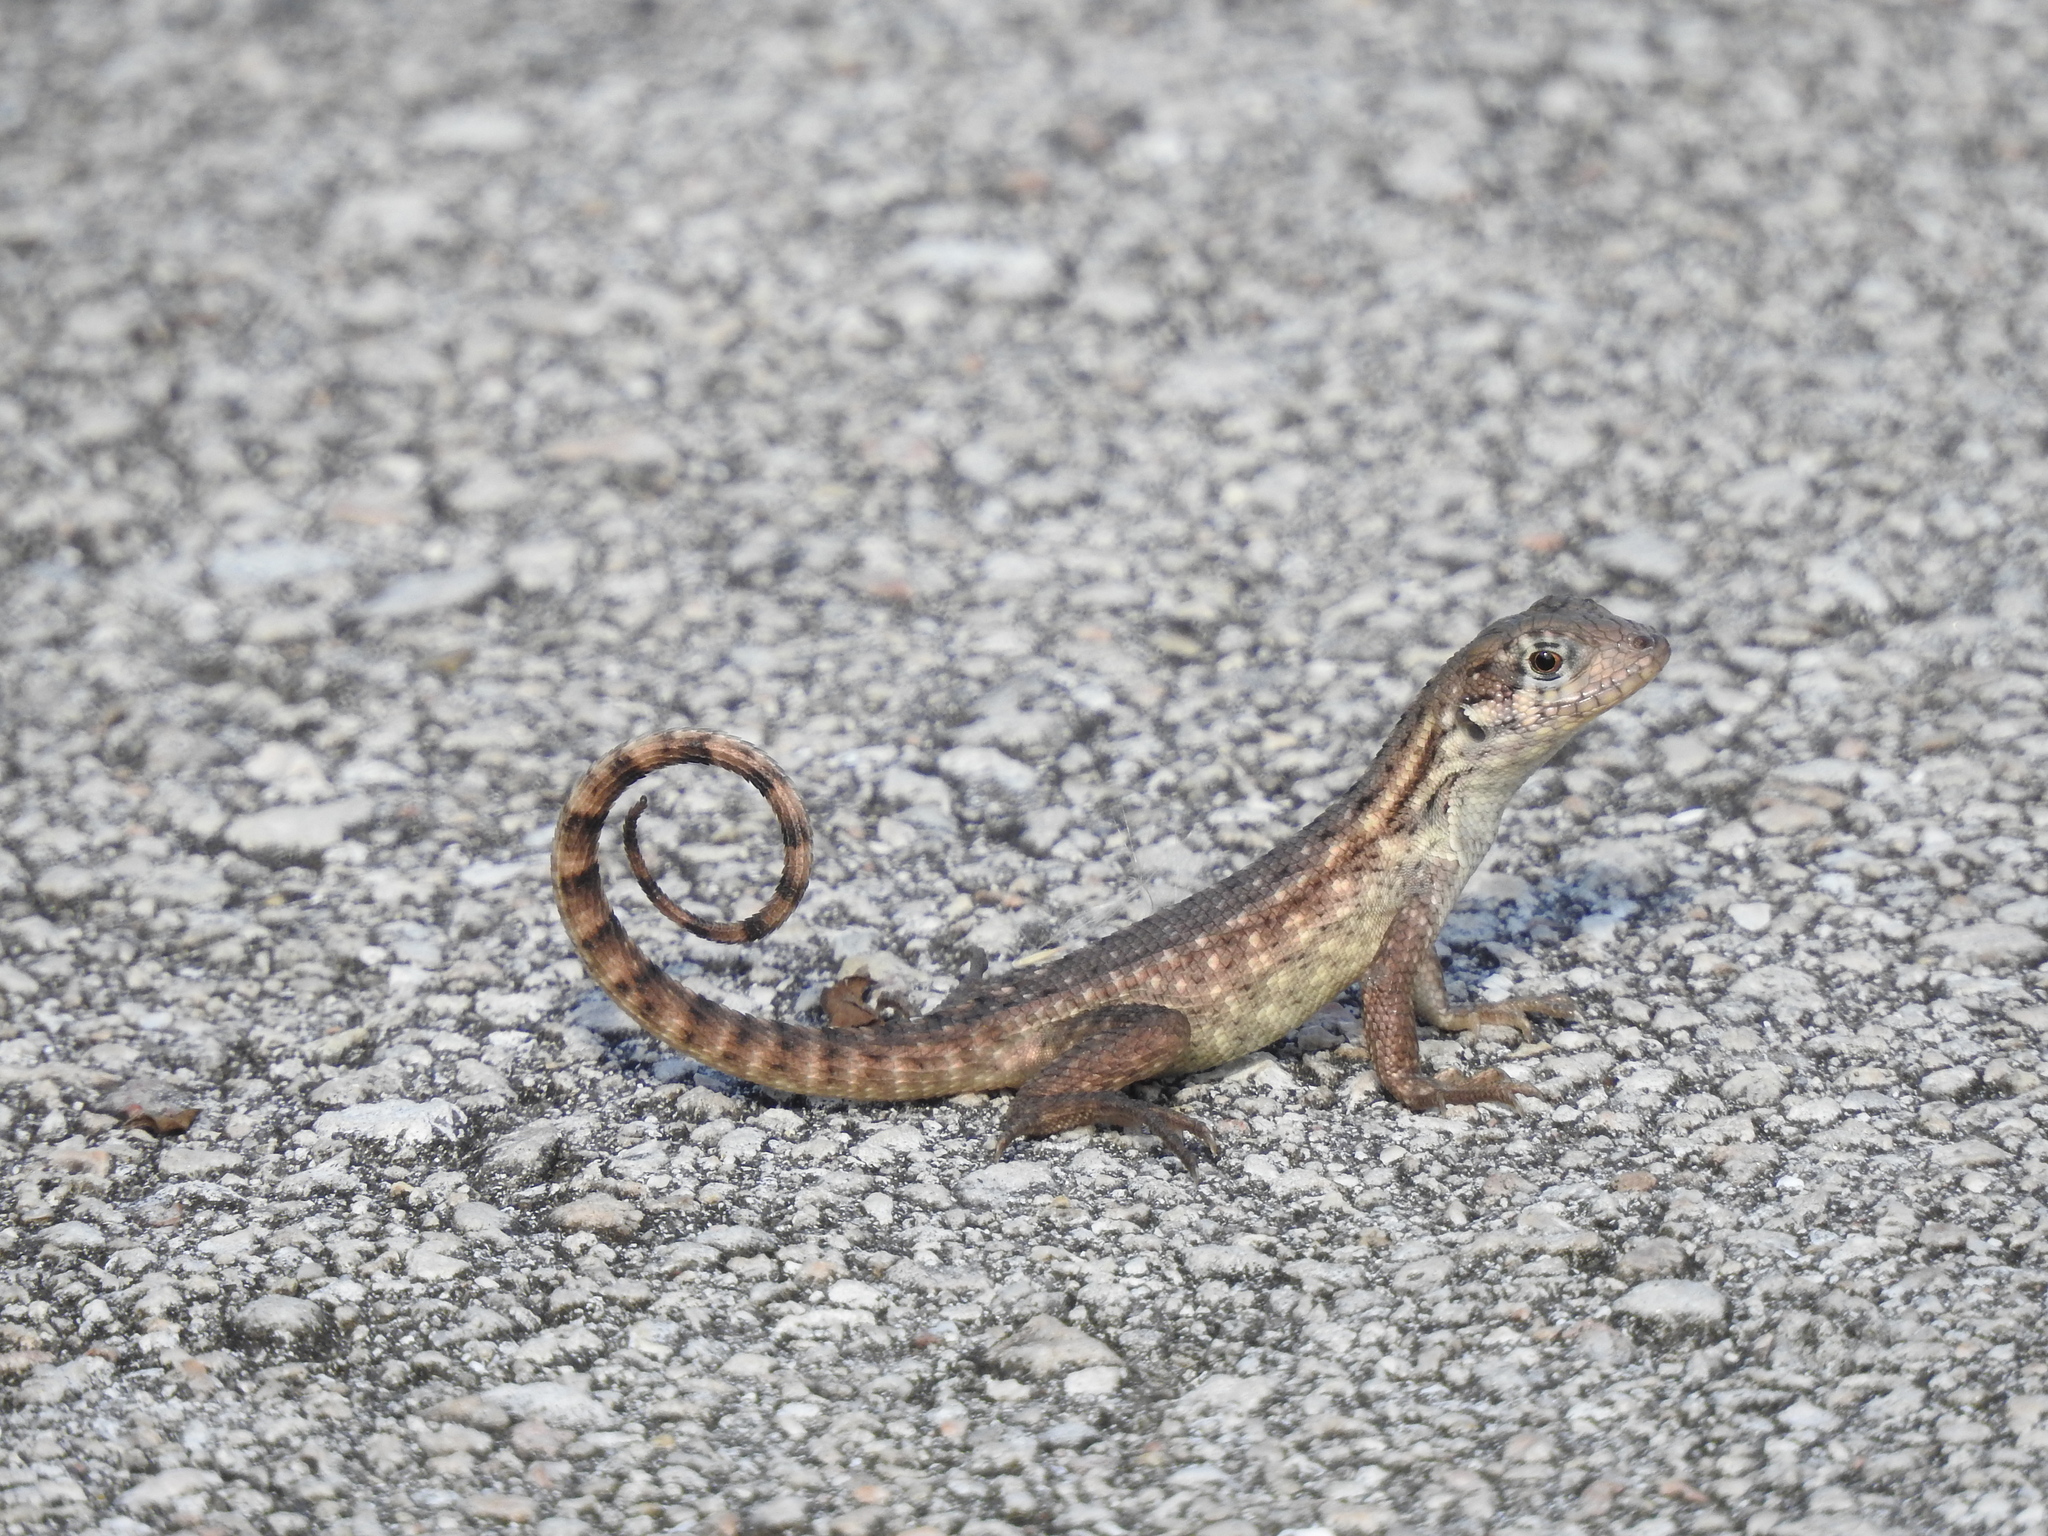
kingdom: Animalia
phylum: Chordata
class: Squamata
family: Leiocephalidae
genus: Leiocephalus
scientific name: Leiocephalus carinatus
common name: Northern curly-tailed lizard
